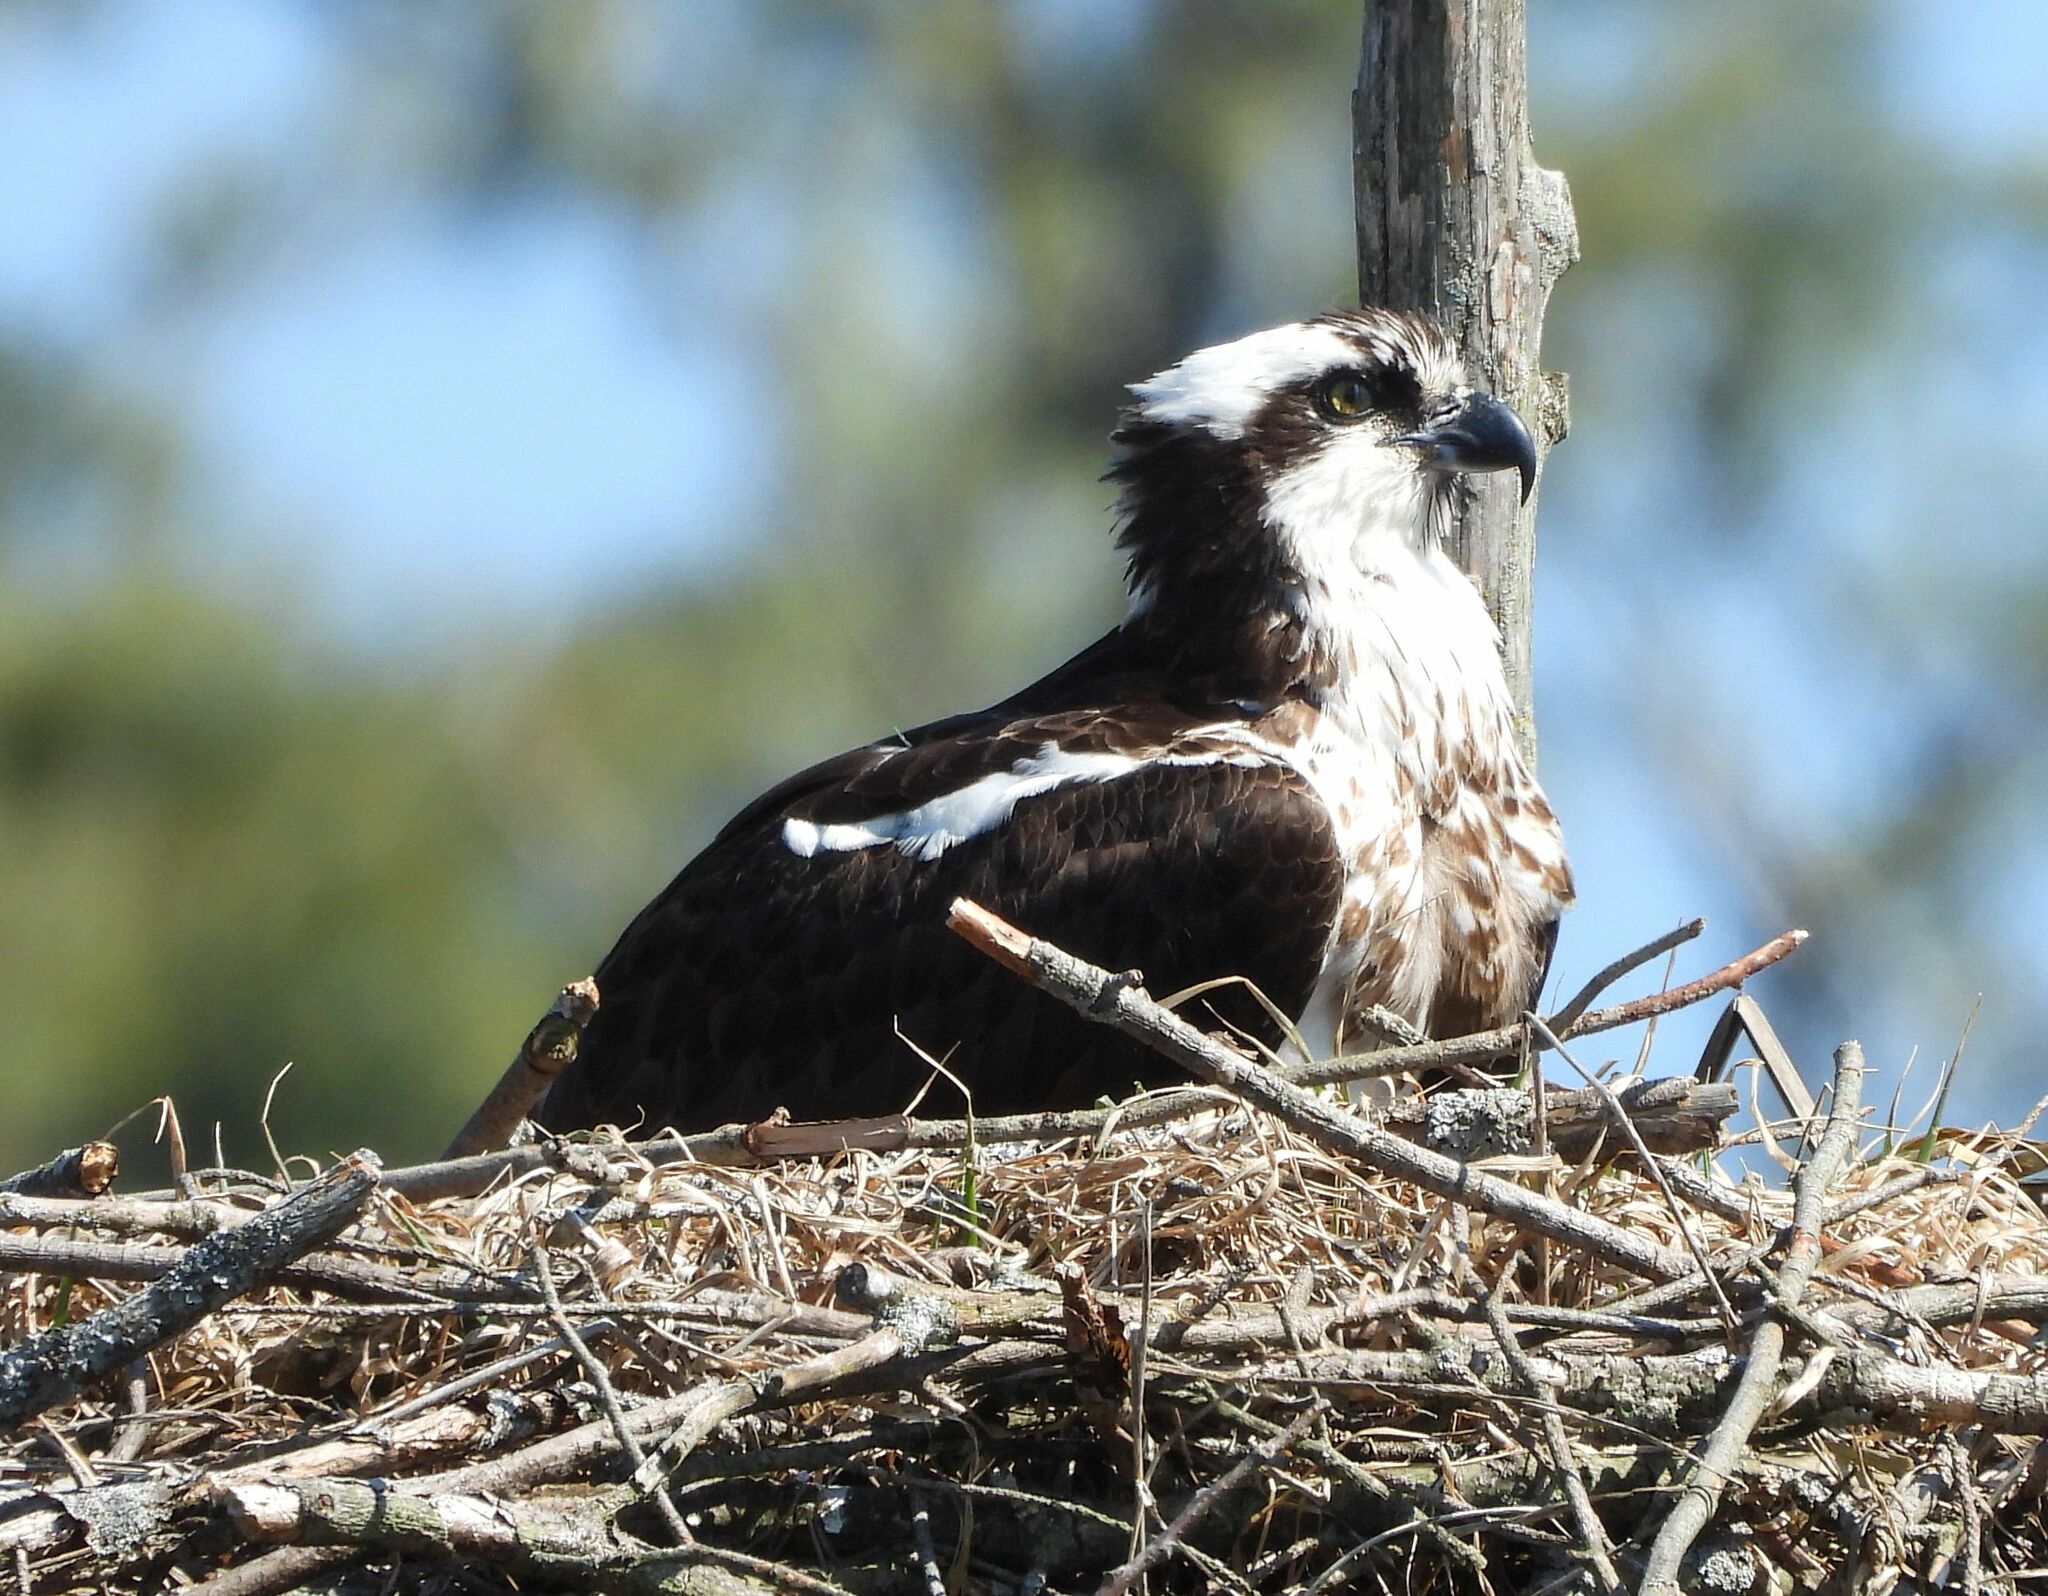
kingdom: Animalia
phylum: Chordata
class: Aves
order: Accipitriformes
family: Pandionidae
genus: Pandion
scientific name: Pandion haliaetus
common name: Osprey
